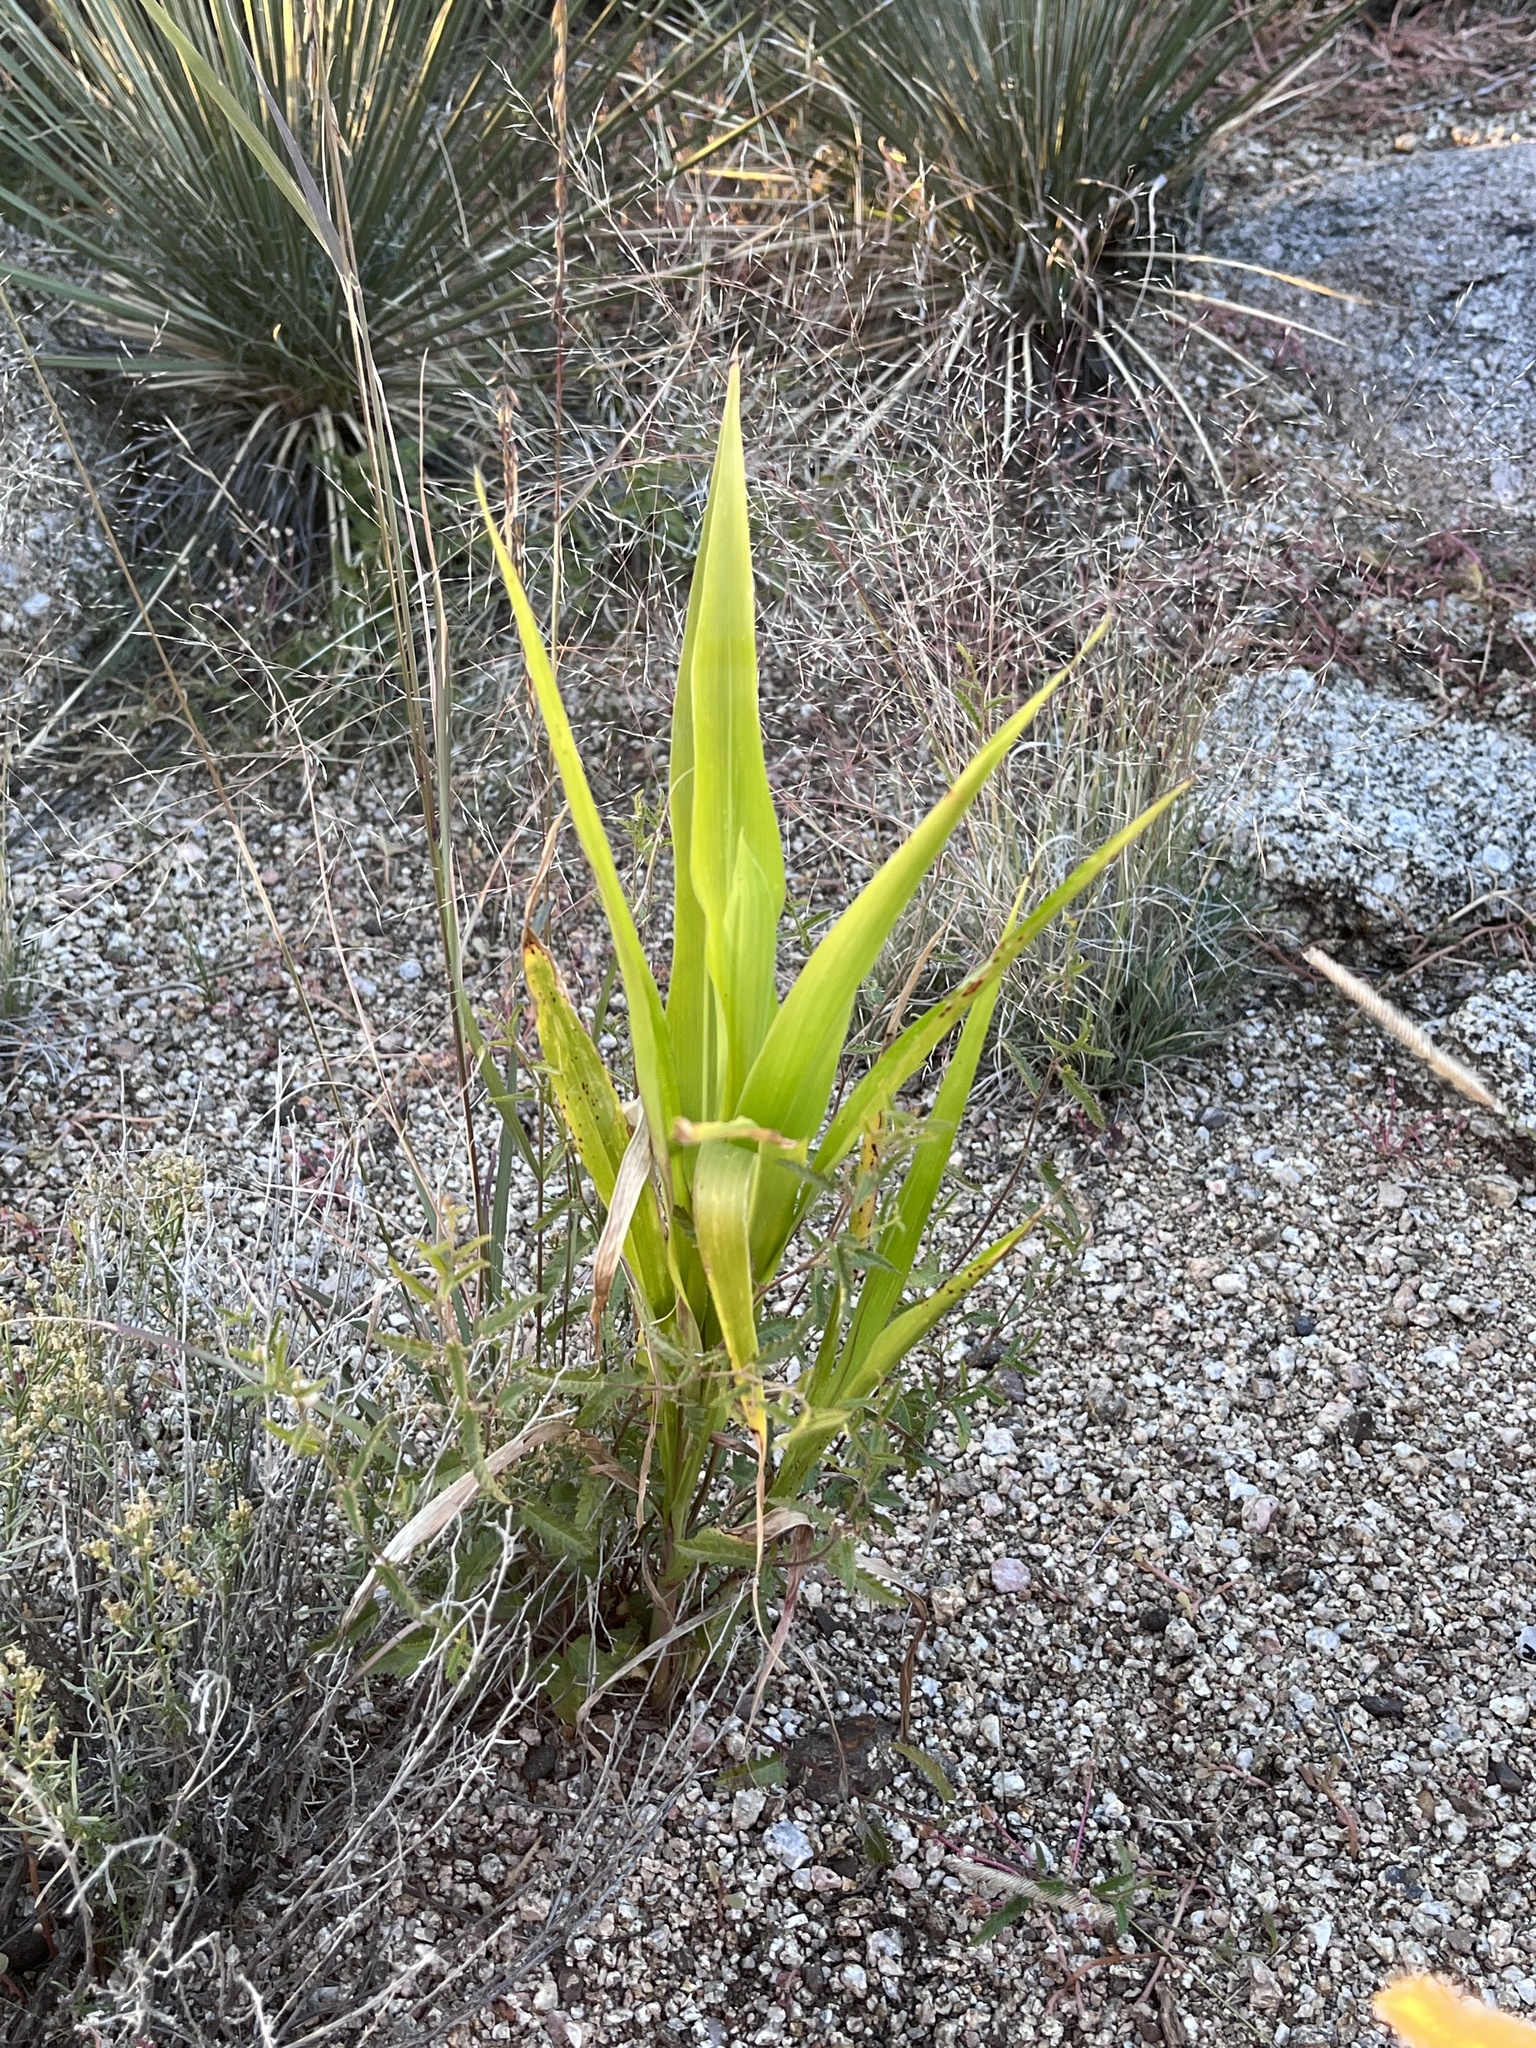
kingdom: Plantae
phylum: Tracheophyta
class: Liliopsida
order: Poales
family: Poaceae
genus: Zea
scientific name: Zea mays
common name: Maize
